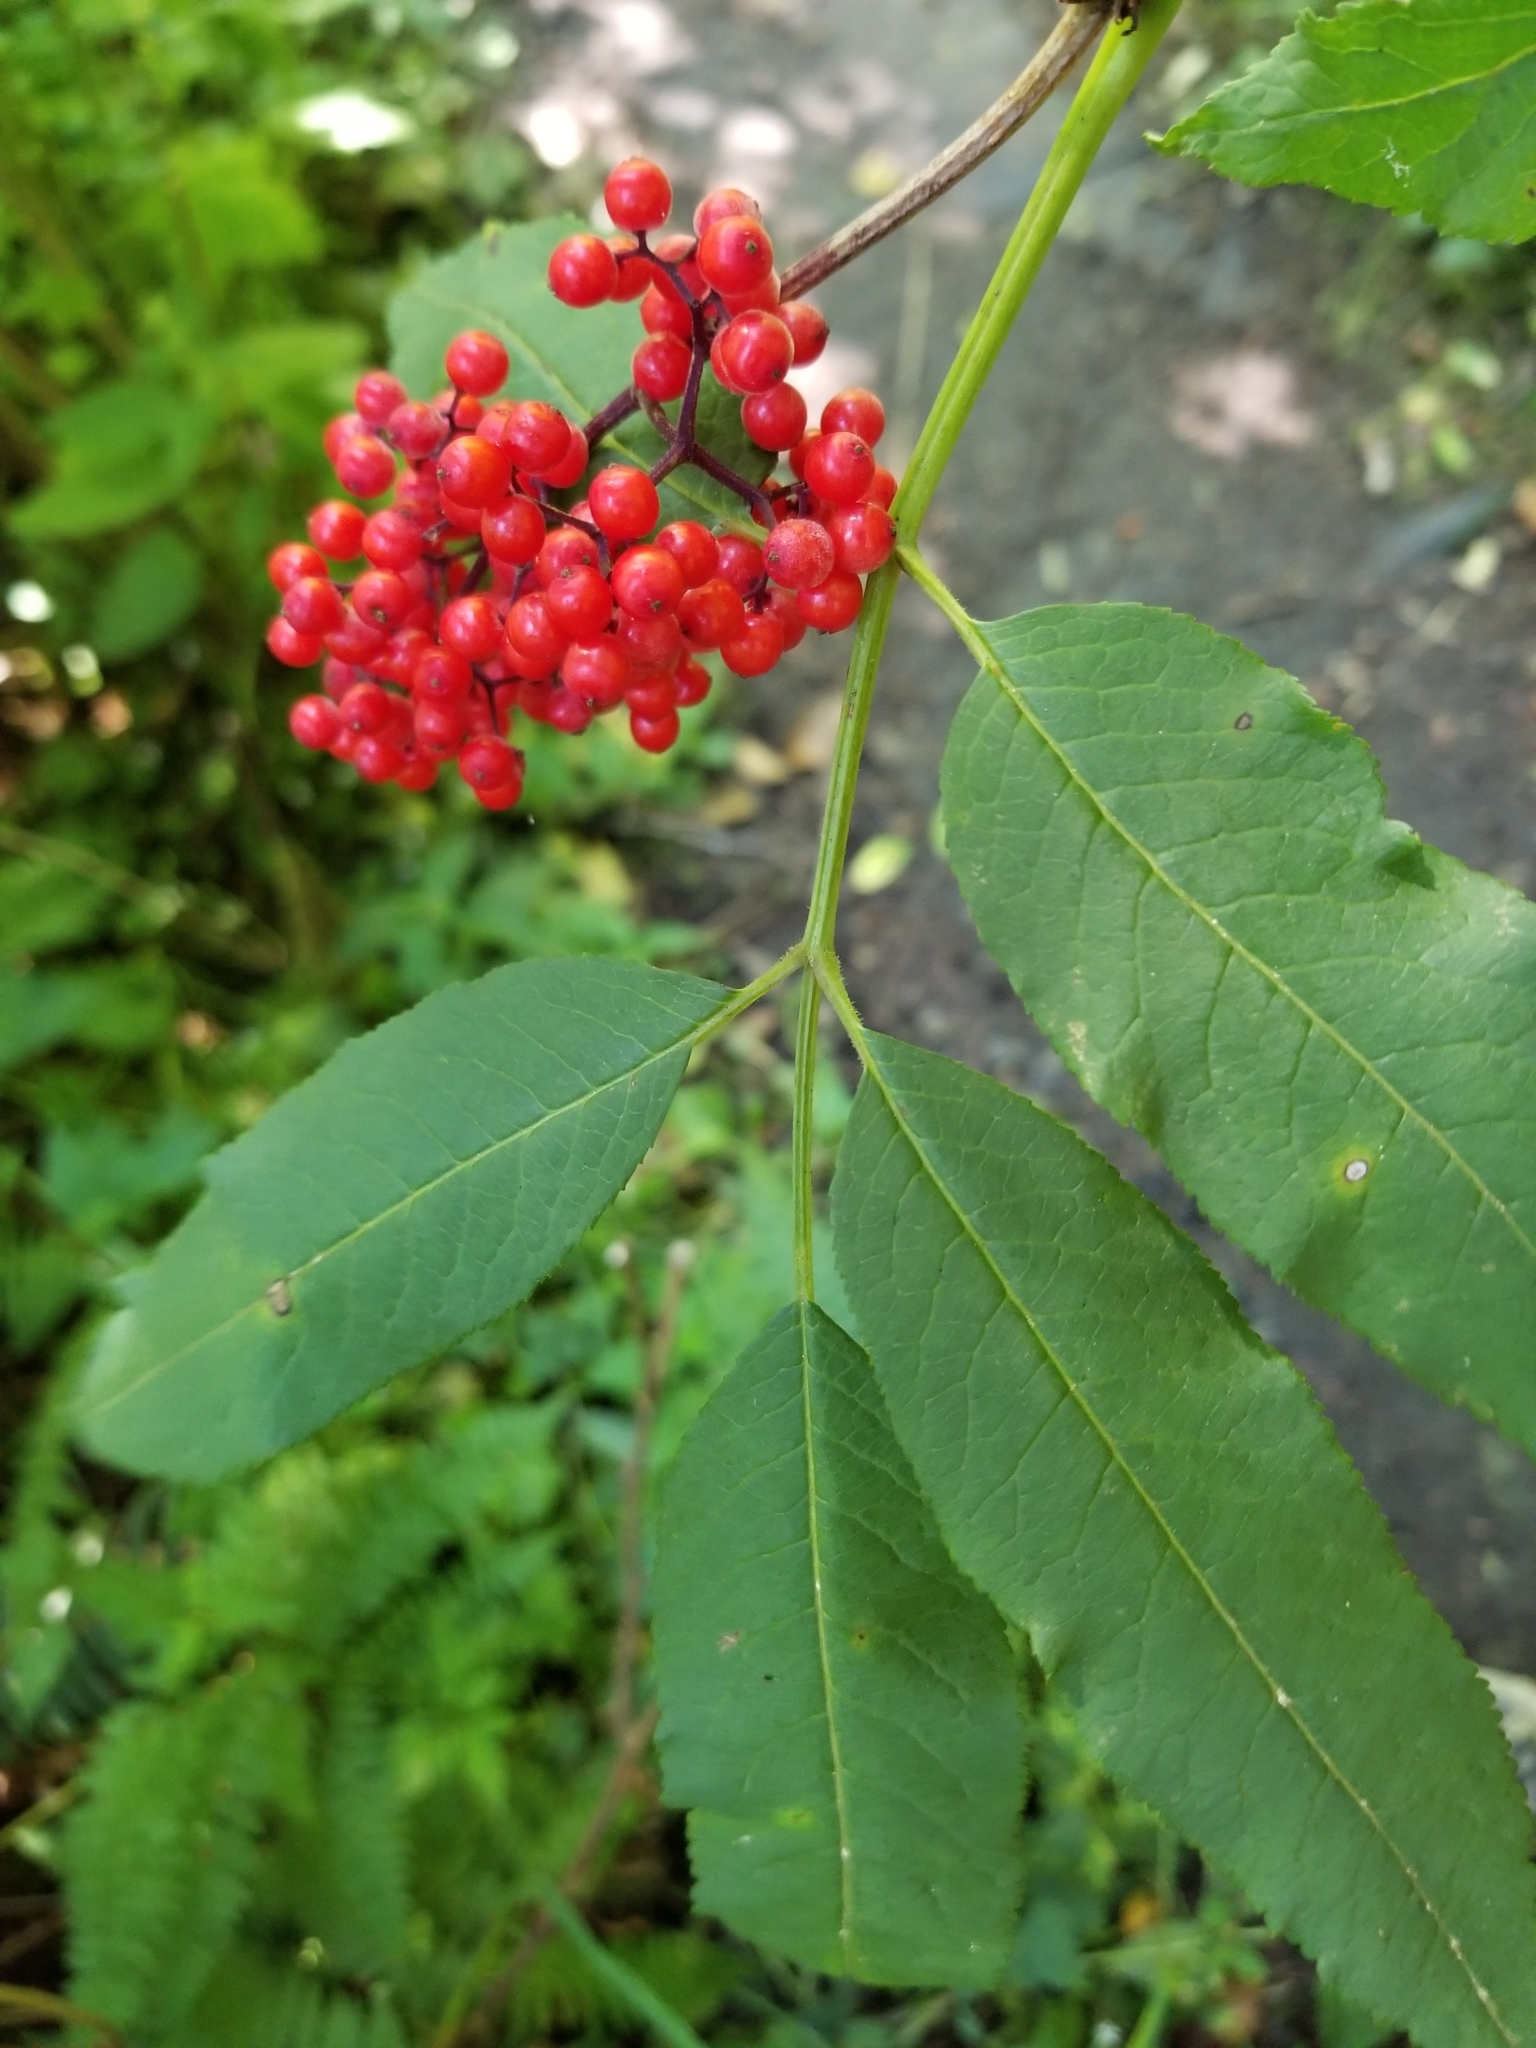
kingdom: Plantae
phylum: Tracheophyta
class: Magnoliopsida
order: Dipsacales
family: Viburnaceae
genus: Sambucus
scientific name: Sambucus racemosa
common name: Red-berried elder
